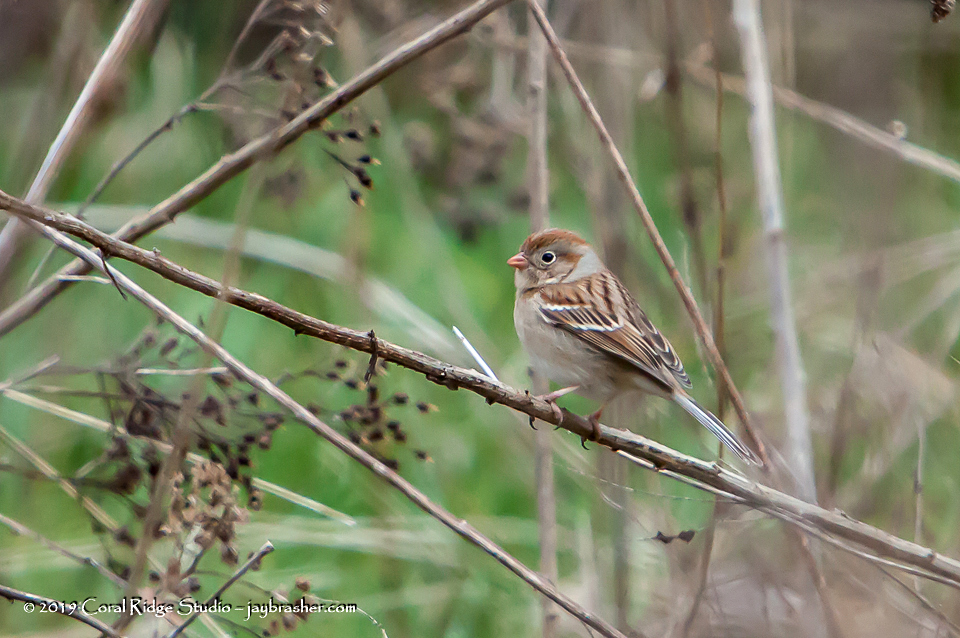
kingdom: Animalia
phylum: Chordata
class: Aves
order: Passeriformes
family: Passerellidae
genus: Spizella
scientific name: Spizella pusilla
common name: Field sparrow
